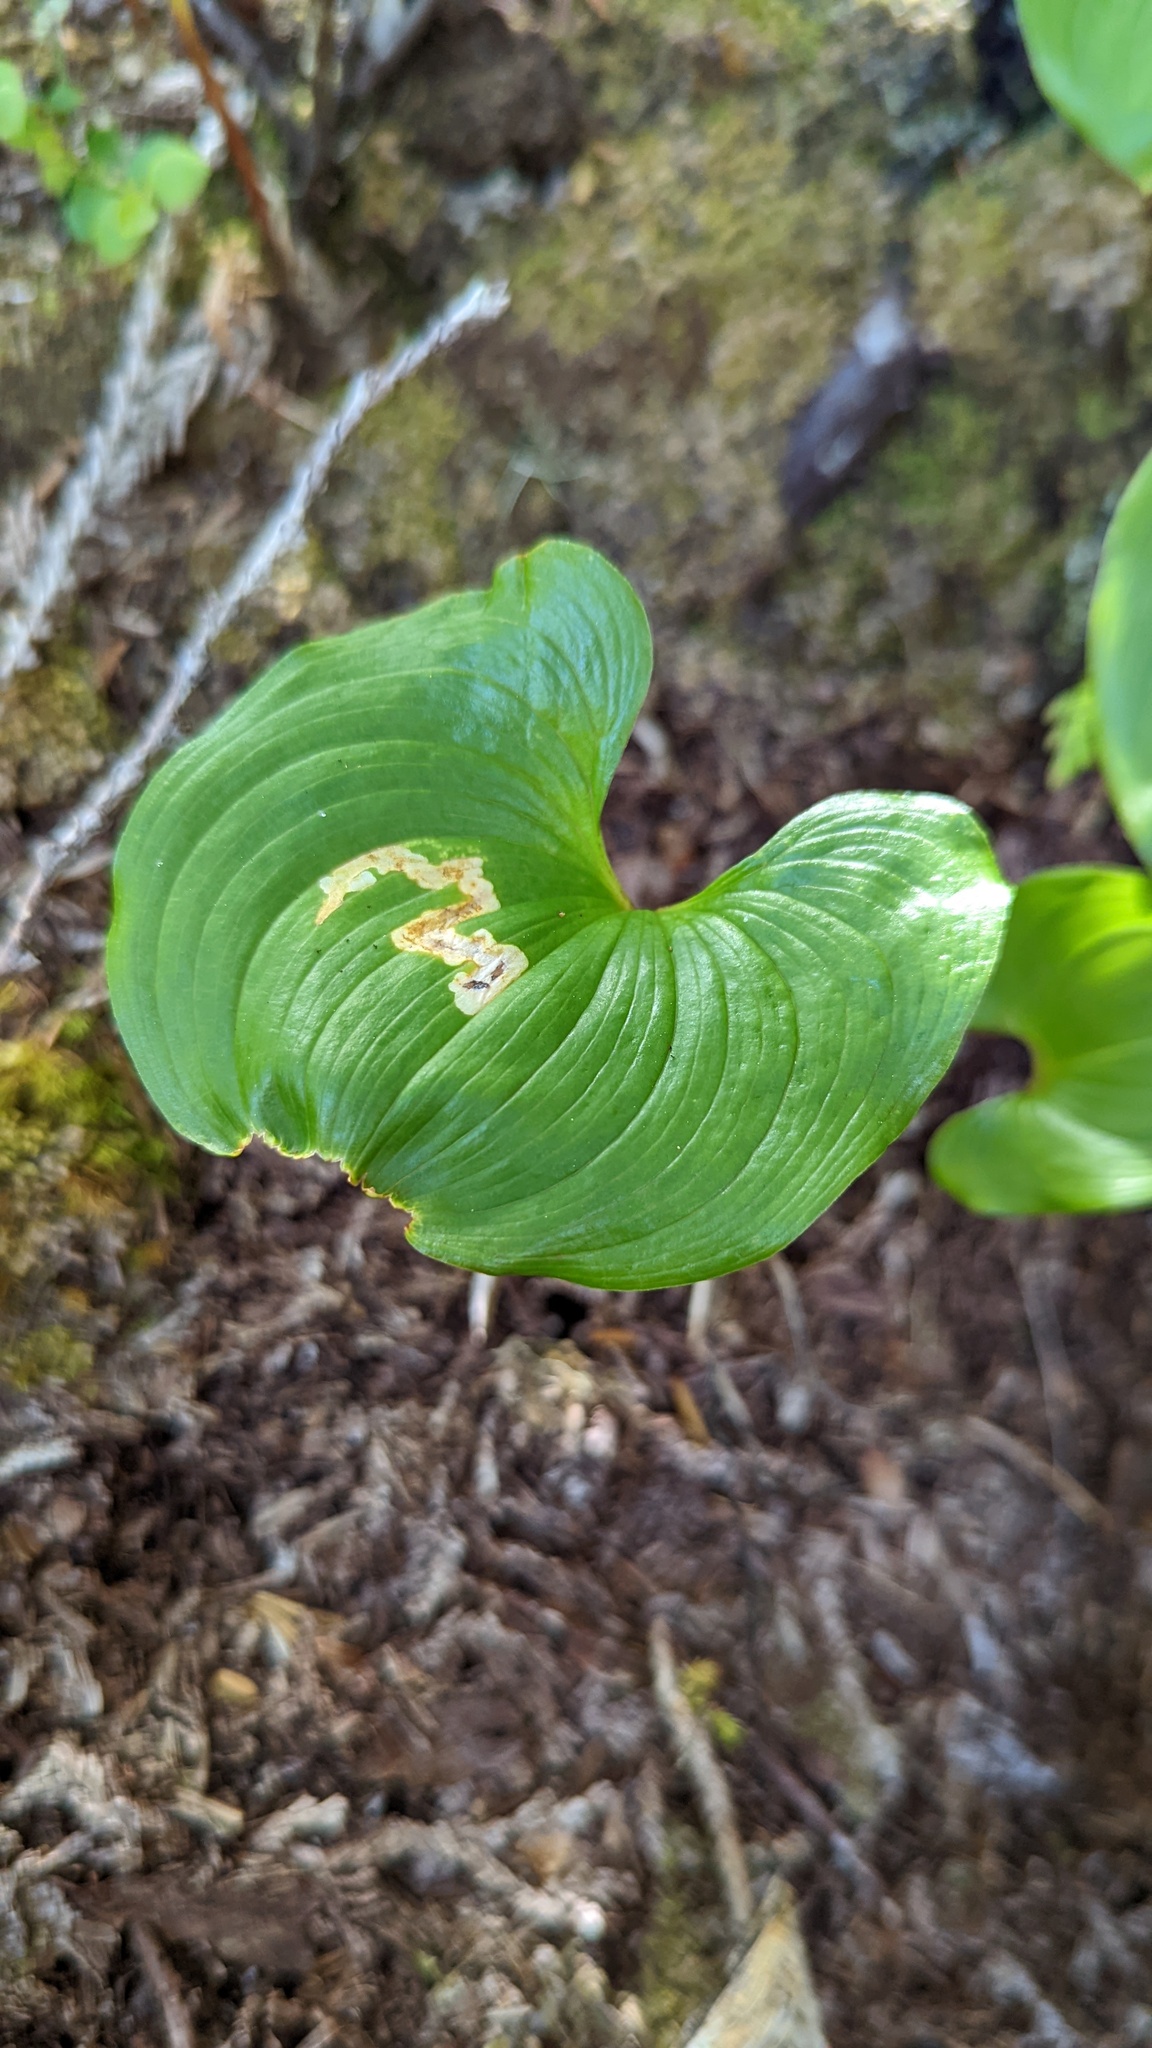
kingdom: Plantae
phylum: Tracheophyta
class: Liliopsida
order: Asparagales
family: Asparagaceae
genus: Maianthemum
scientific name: Maianthemum dilatatum
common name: False lily-of-the-valley
